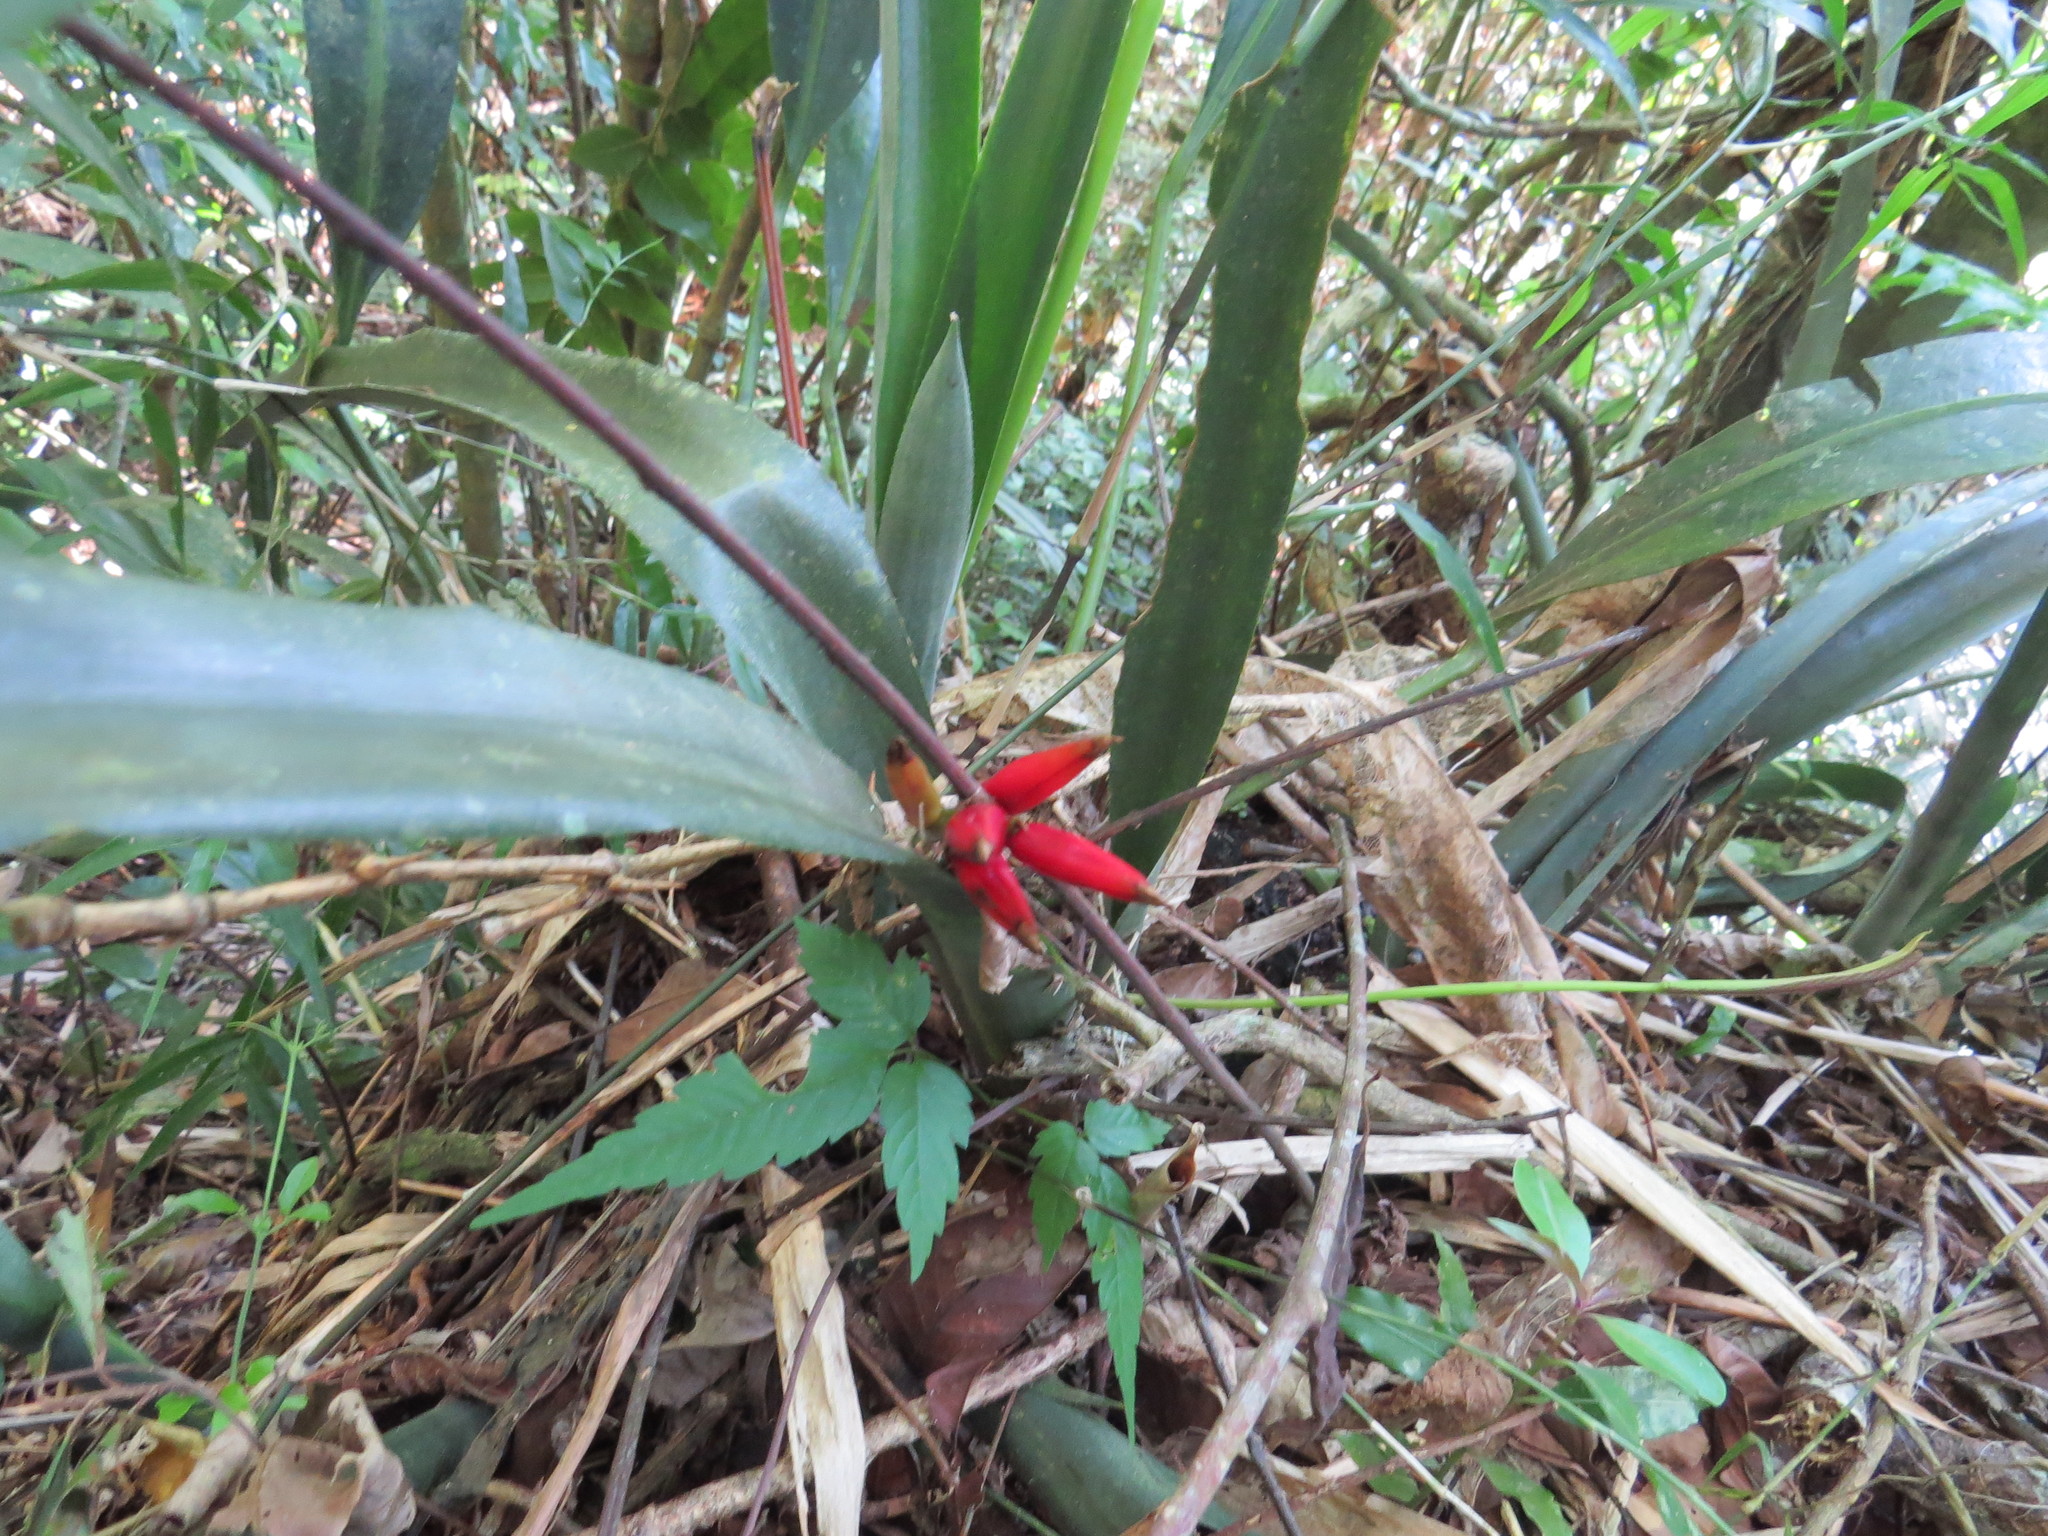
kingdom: Plantae
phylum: Tracheophyta
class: Liliopsida
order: Poales
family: Bromeliaceae
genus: Quesnelia
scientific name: Quesnelia liboniana
